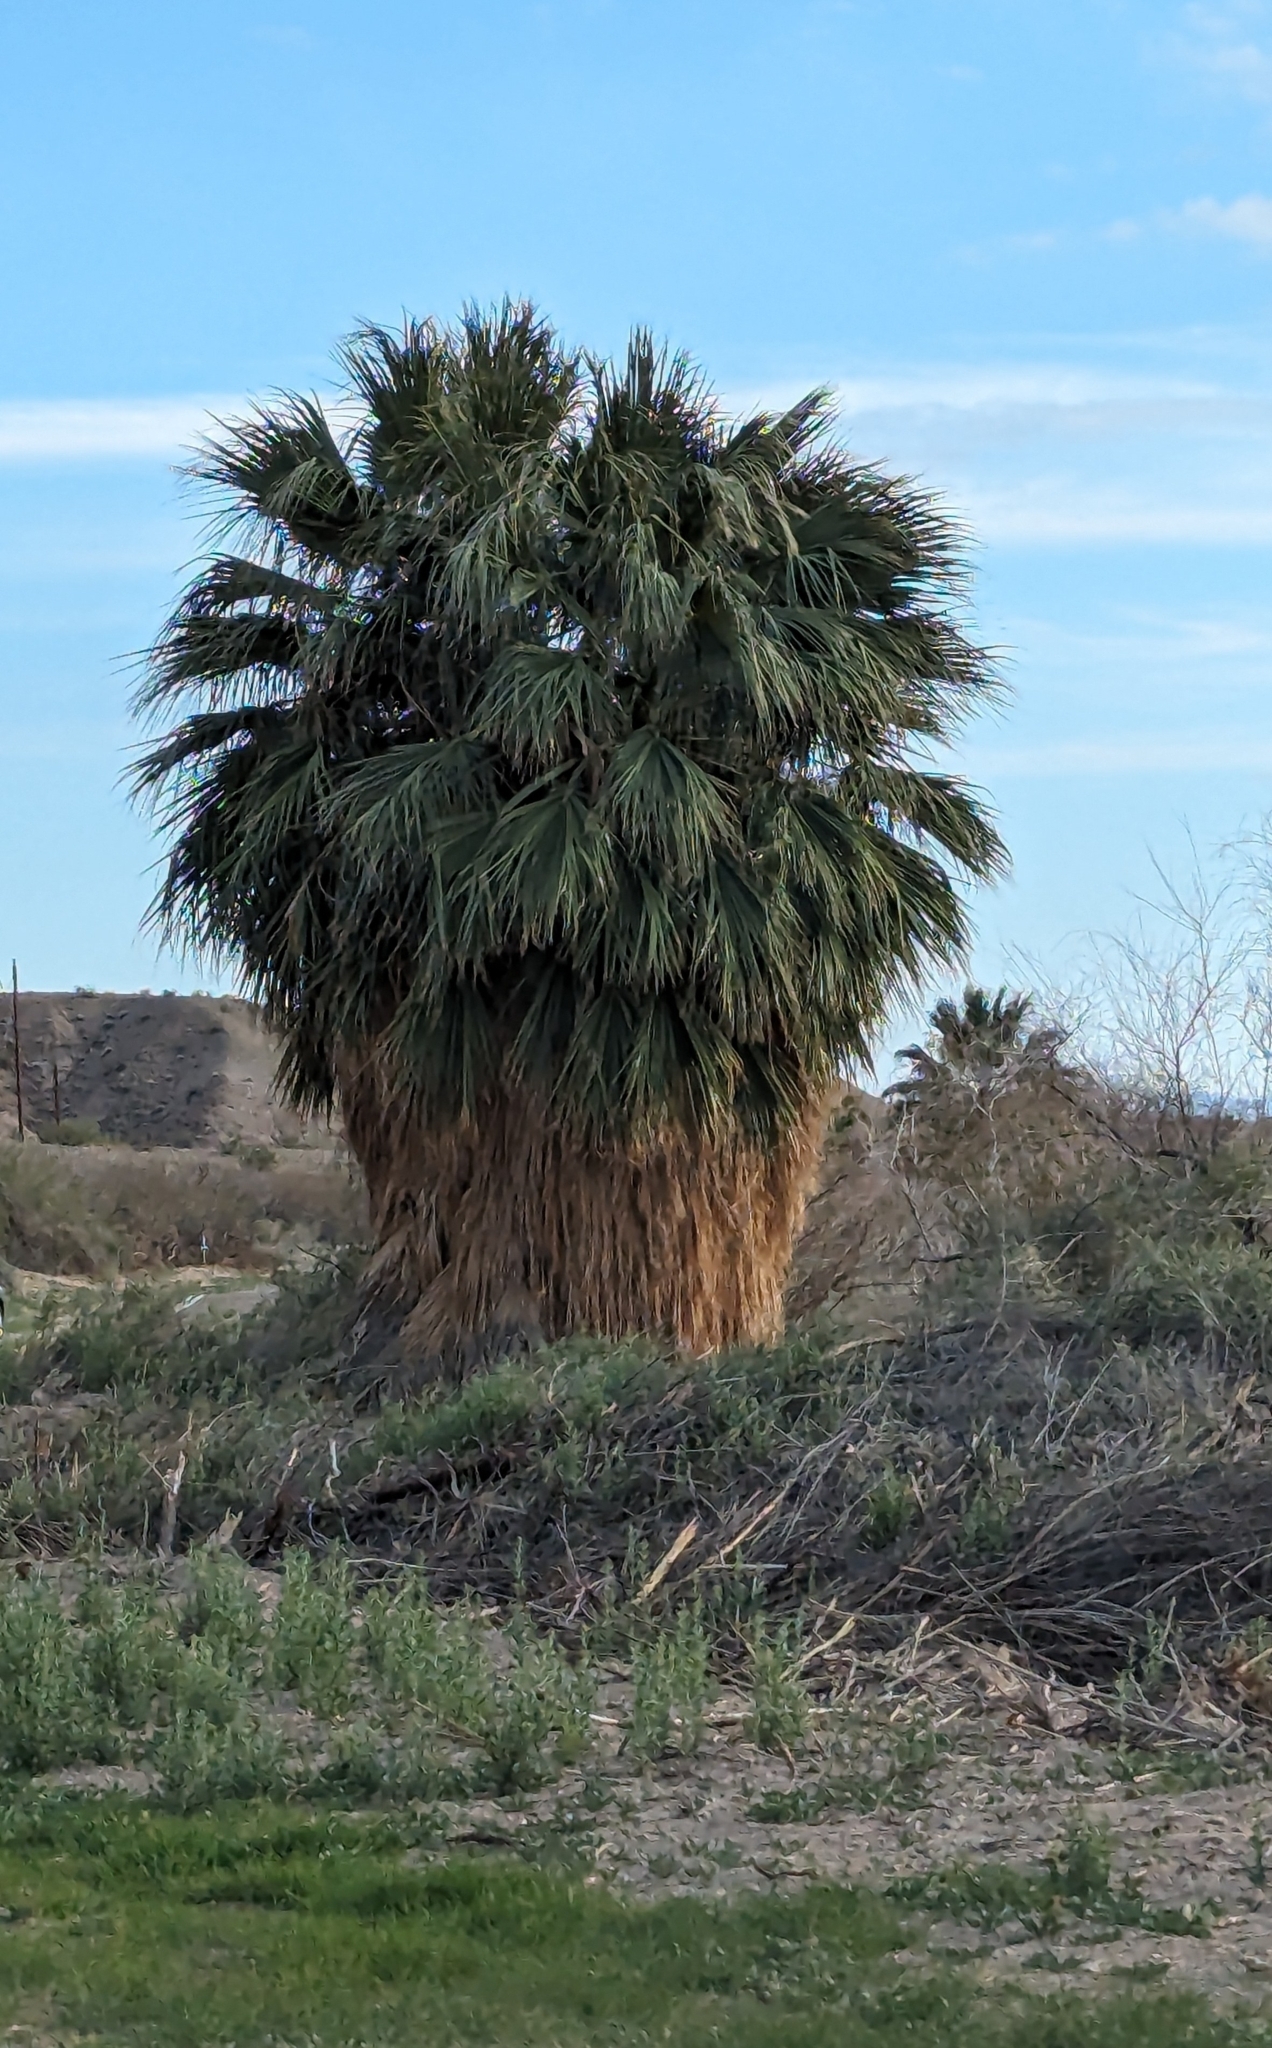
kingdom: Plantae
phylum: Tracheophyta
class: Liliopsida
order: Arecales
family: Arecaceae
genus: Washingtonia
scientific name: Washingtonia filifera
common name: California fan palm
